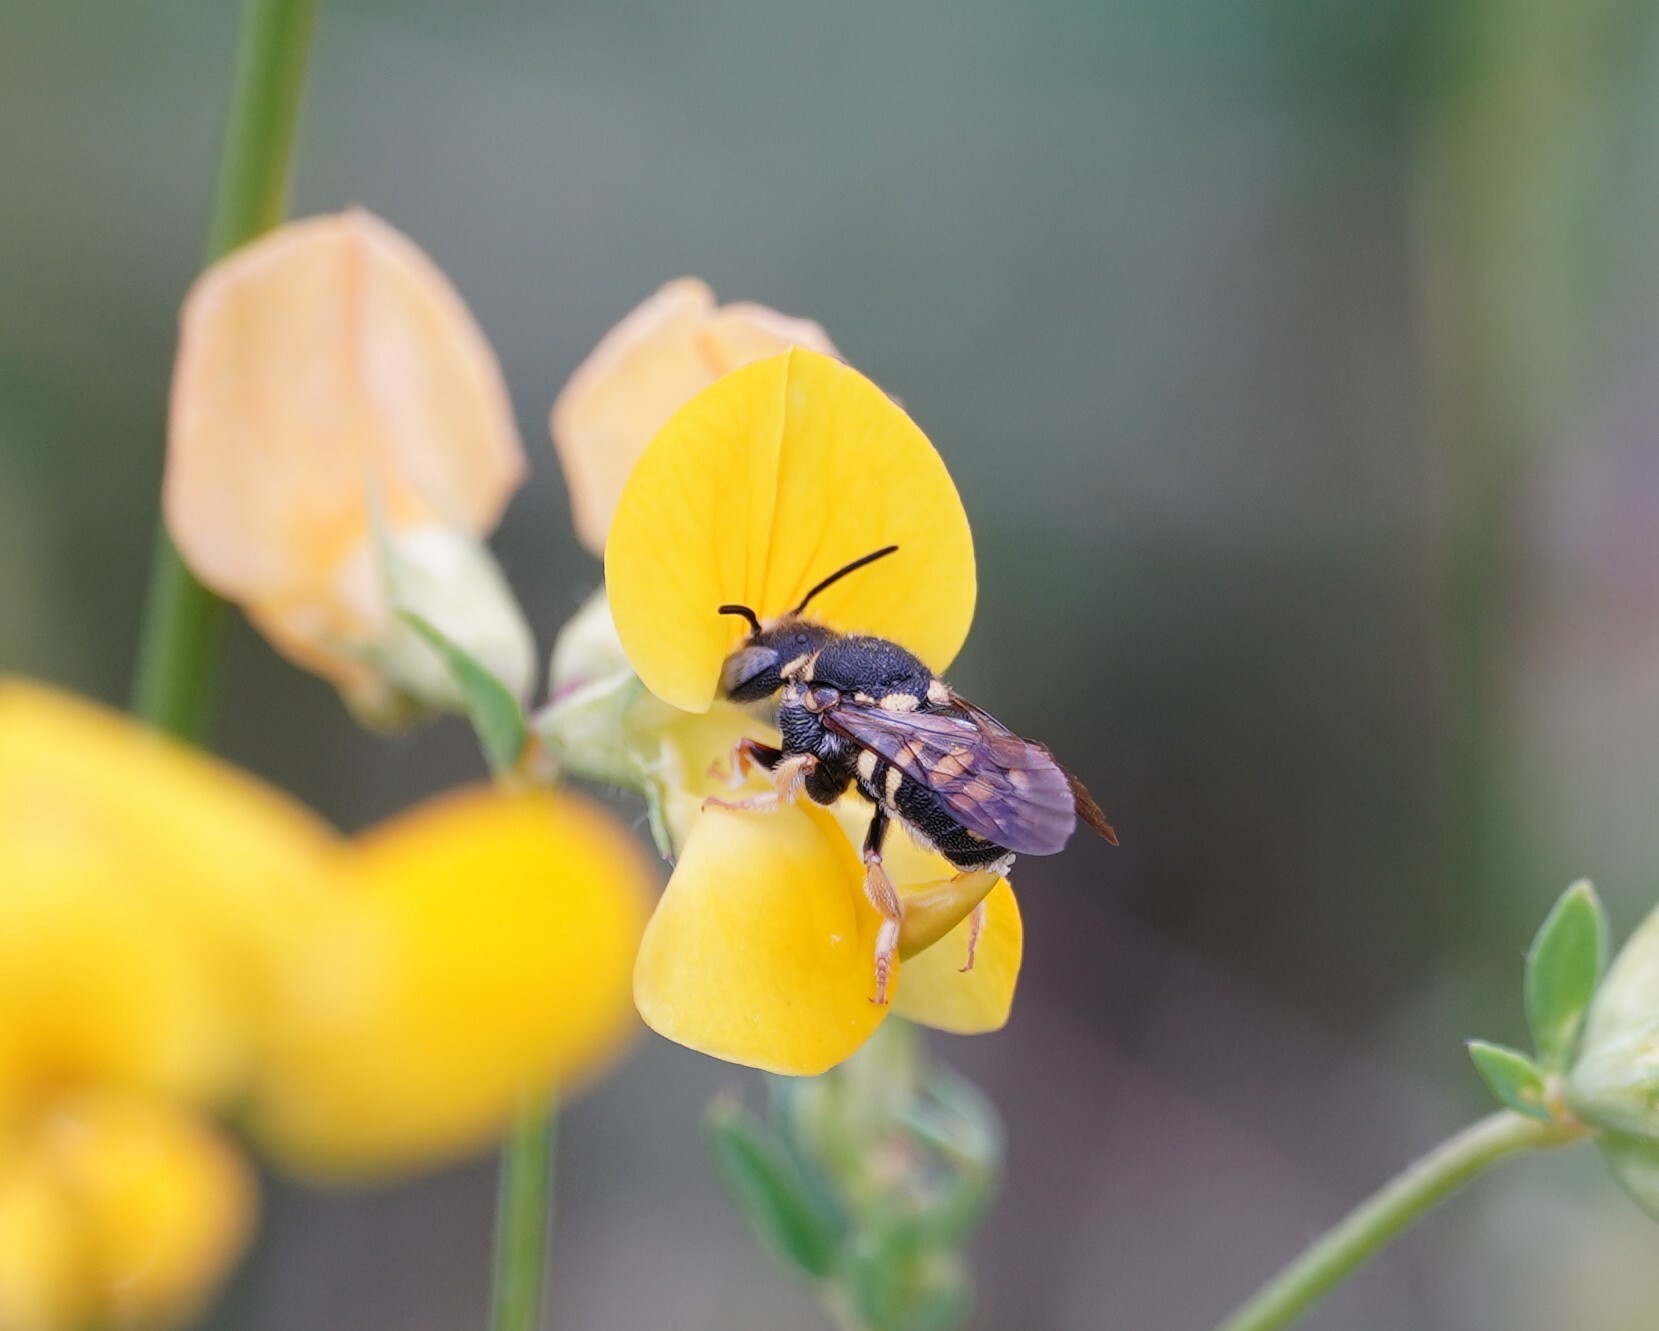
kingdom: Animalia
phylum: Arthropoda
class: Insecta
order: Hymenoptera
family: Megachilidae
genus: Anthidiellum
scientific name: Anthidiellum strigatum
